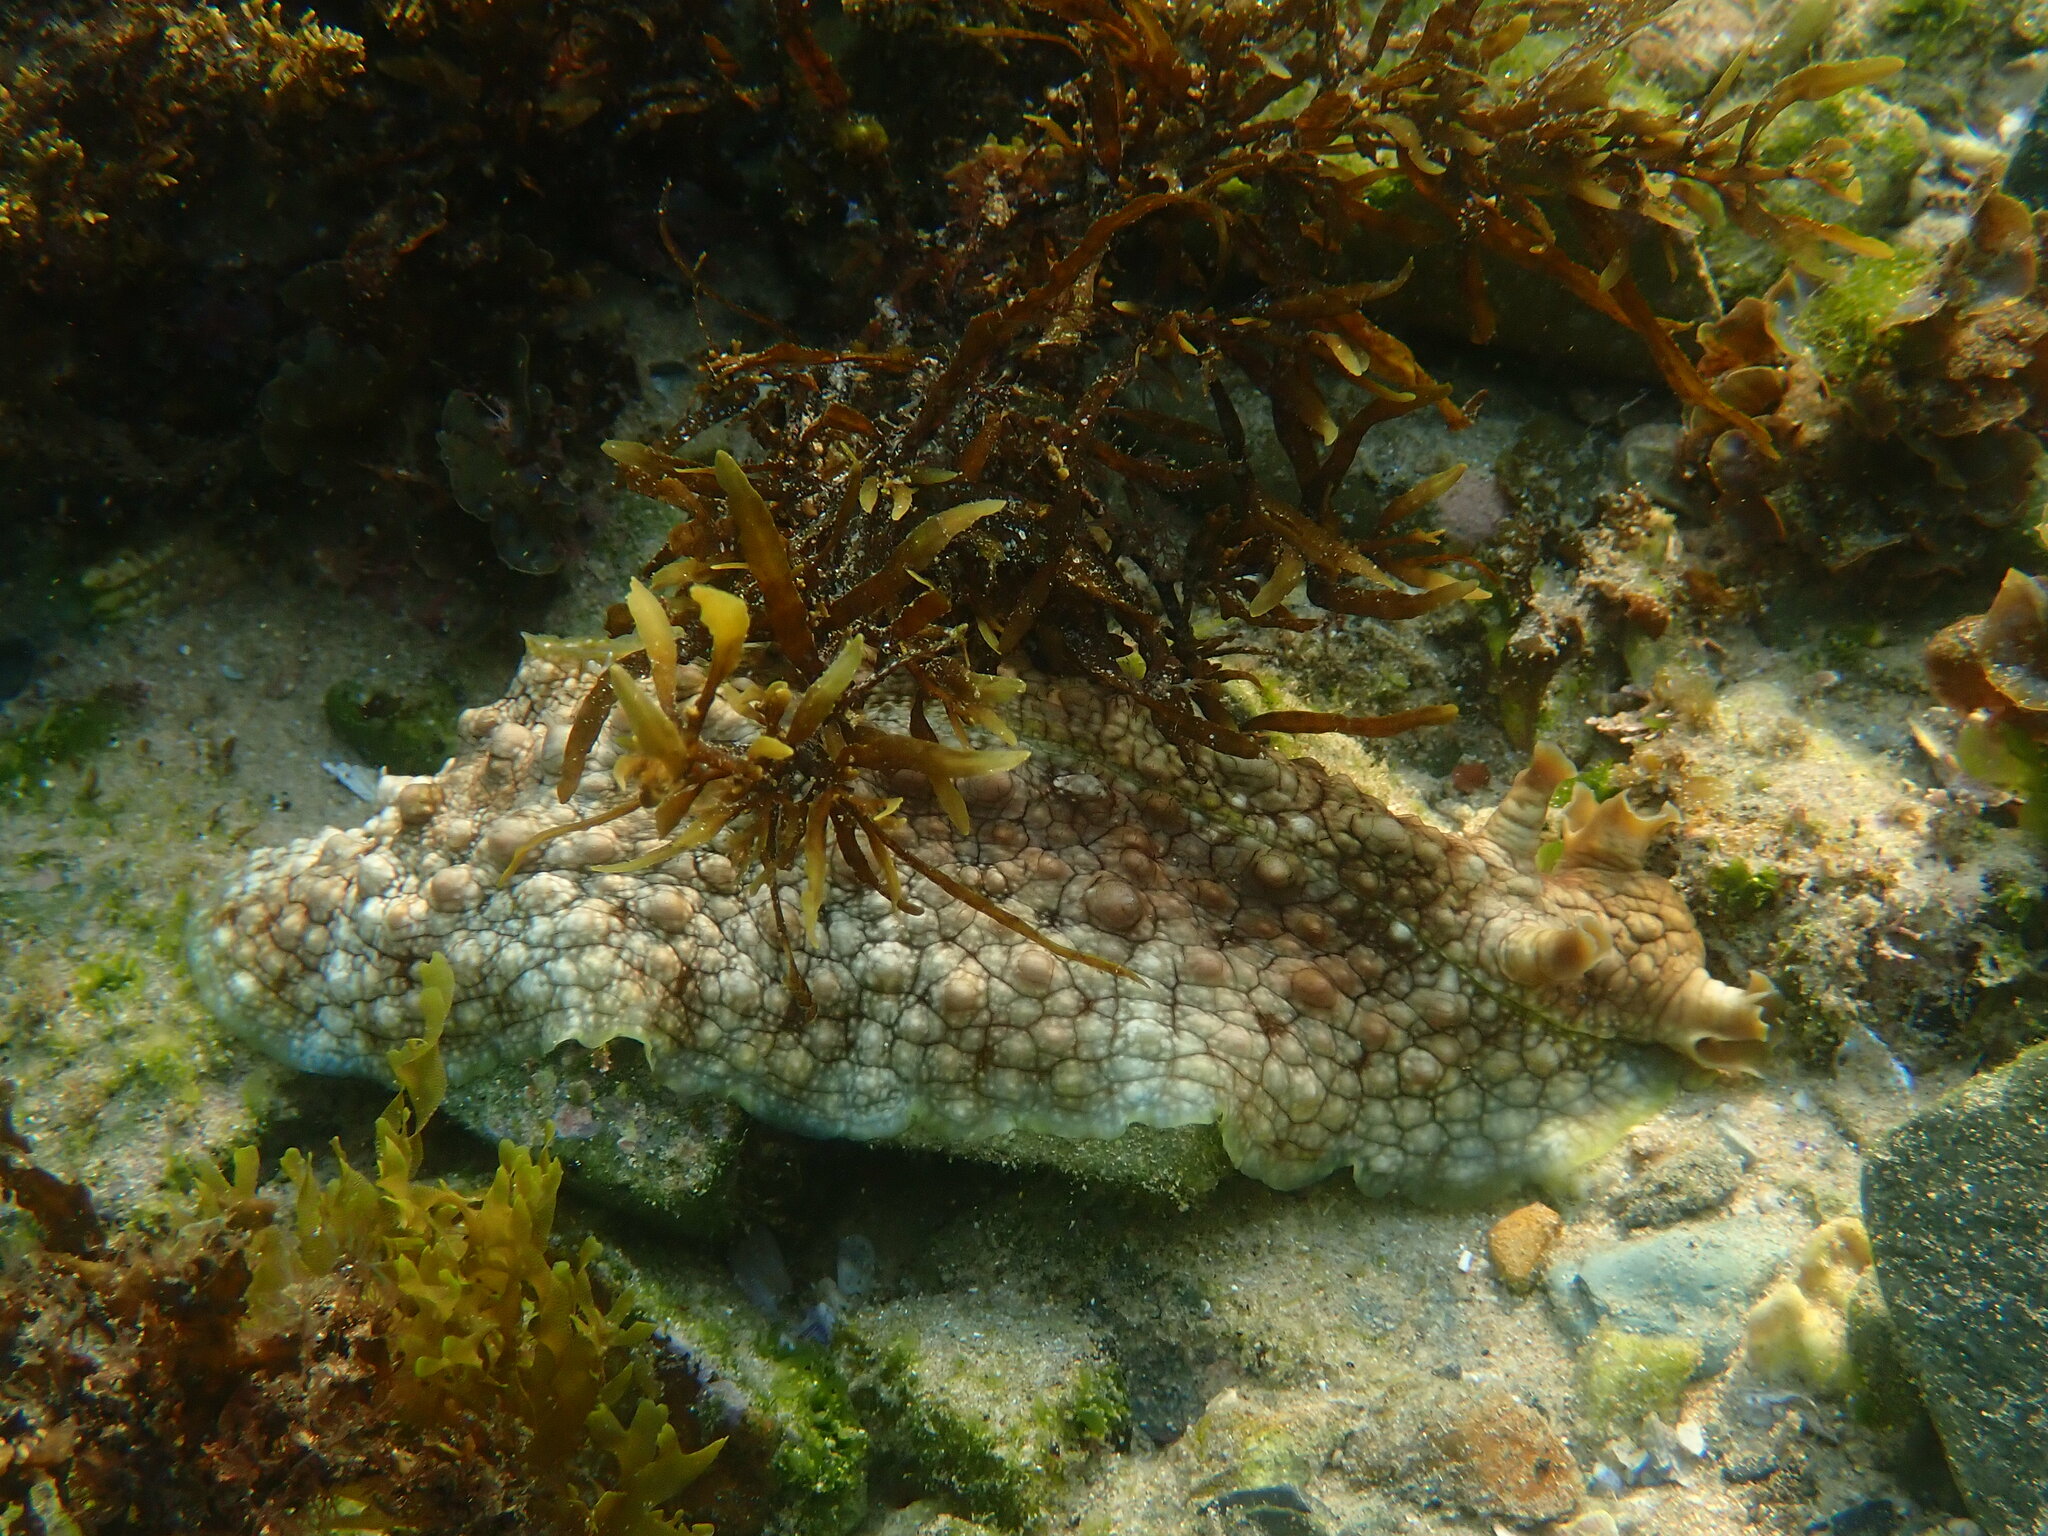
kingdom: Animalia
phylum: Mollusca
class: Gastropoda
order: Aplysiida
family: Aplysiidae
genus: Dolabrifera
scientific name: Dolabrifera brazieri
